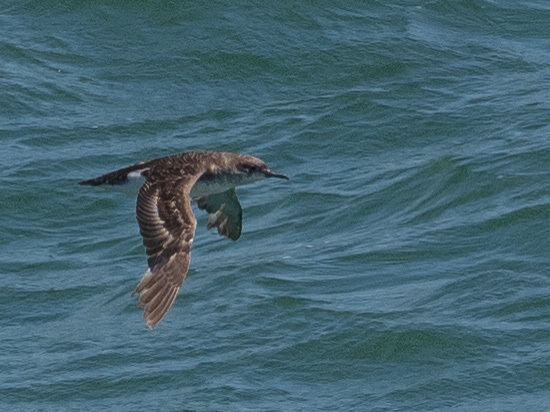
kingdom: Animalia
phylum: Chordata
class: Aves
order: Procellariiformes
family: Procellariidae
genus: Puffinus
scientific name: Puffinus gavia
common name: Fluttering shearwater
